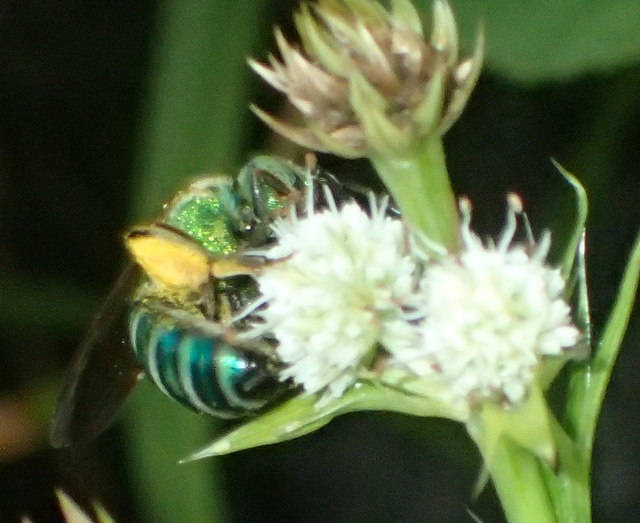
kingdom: Animalia
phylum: Arthropoda
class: Insecta
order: Hymenoptera
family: Halictidae
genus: Agapostemon
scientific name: Agapostemon splendens
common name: Brown-winged striped sweat bee
